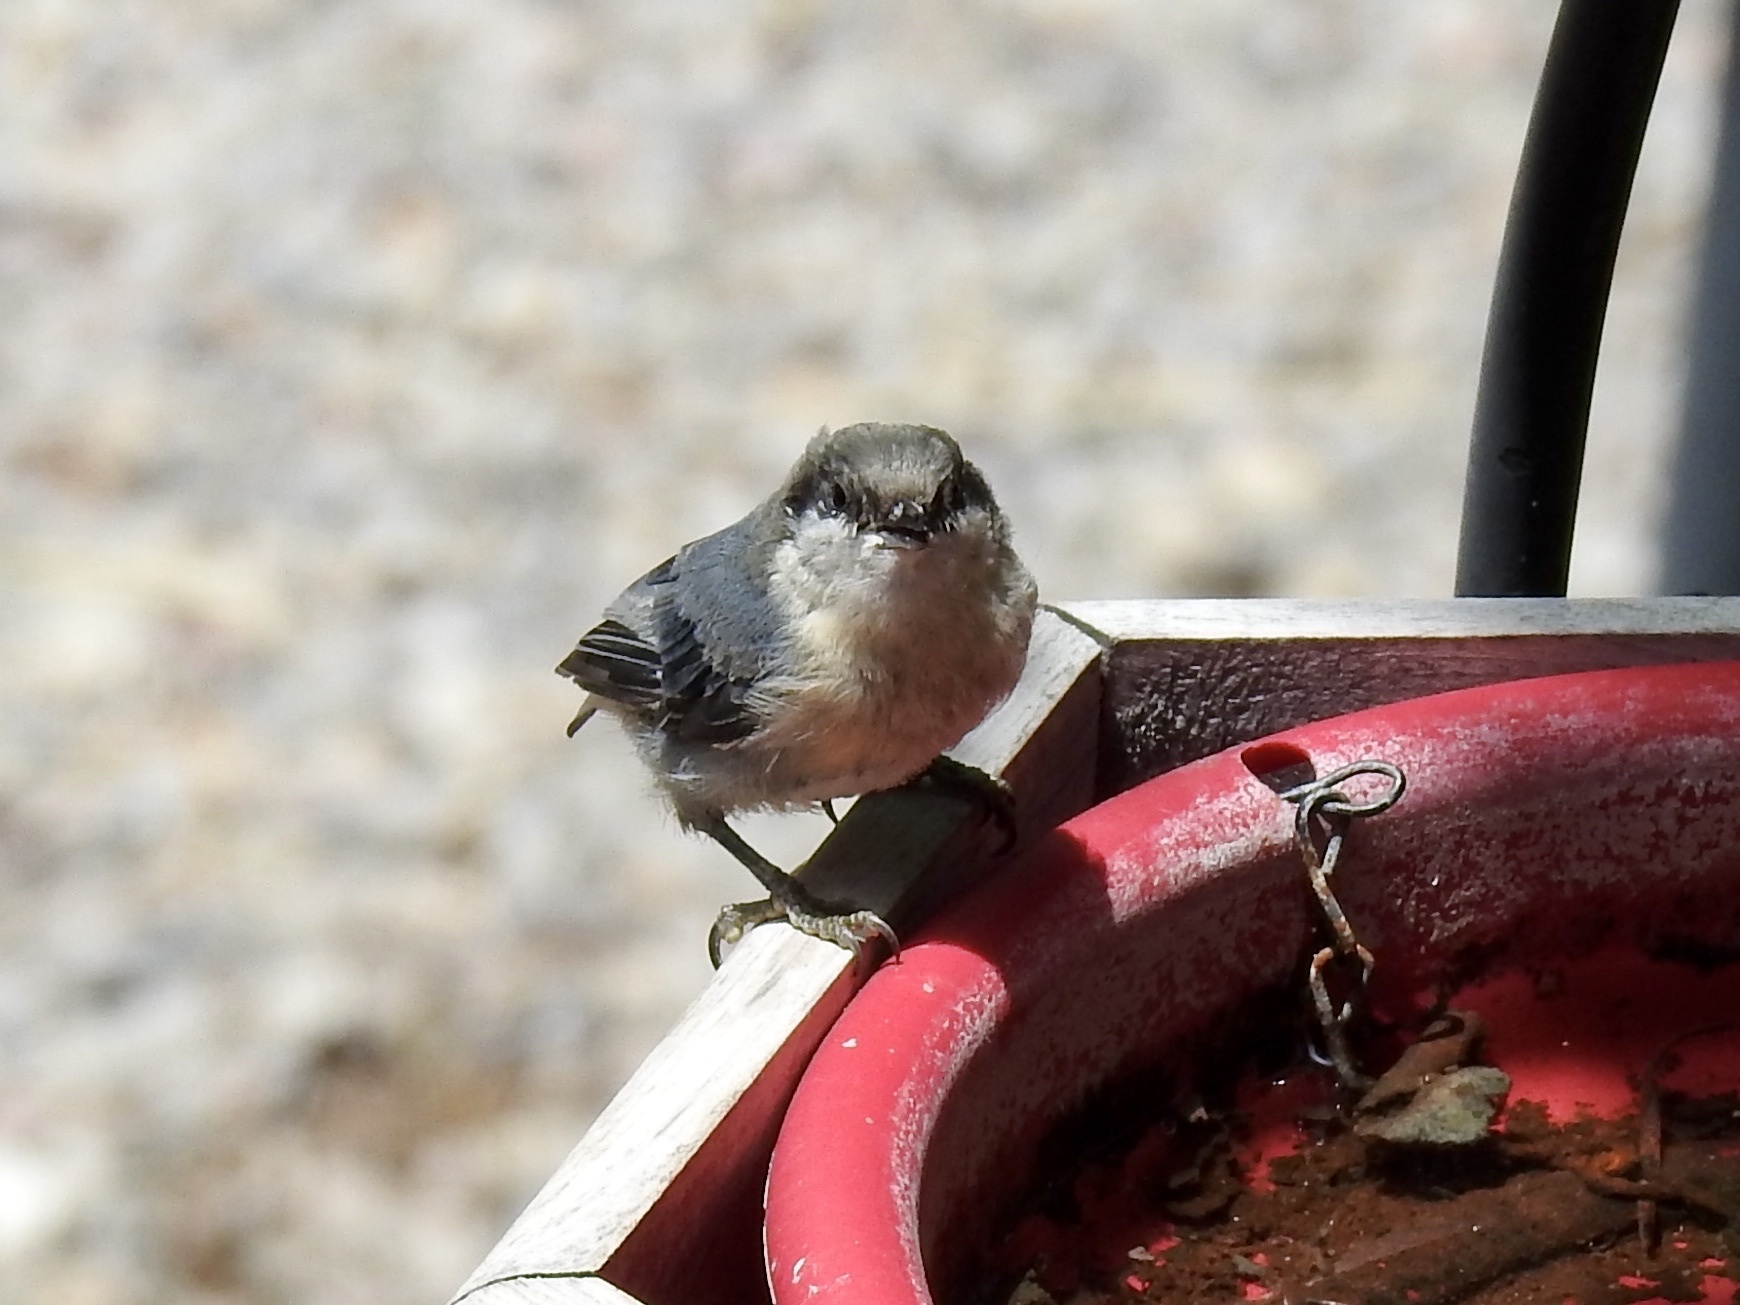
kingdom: Animalia
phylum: Chordata
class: Aves
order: Passeriformes
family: Sittidae
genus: Sitta
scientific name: Sitta pygmaea
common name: Pygmy nuthatch
